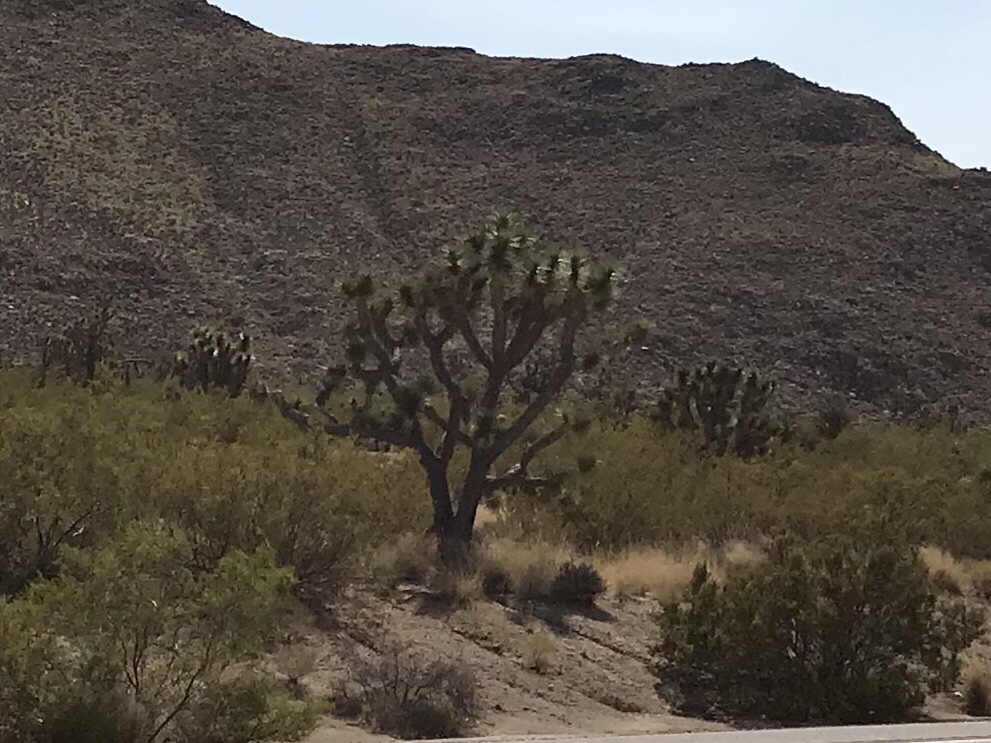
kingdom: Plantae
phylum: Tracheophyta
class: Liliopsida
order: Asparagales
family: Asparagaceae
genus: Yucca
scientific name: Yucca brevifolia
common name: Joshua tree
